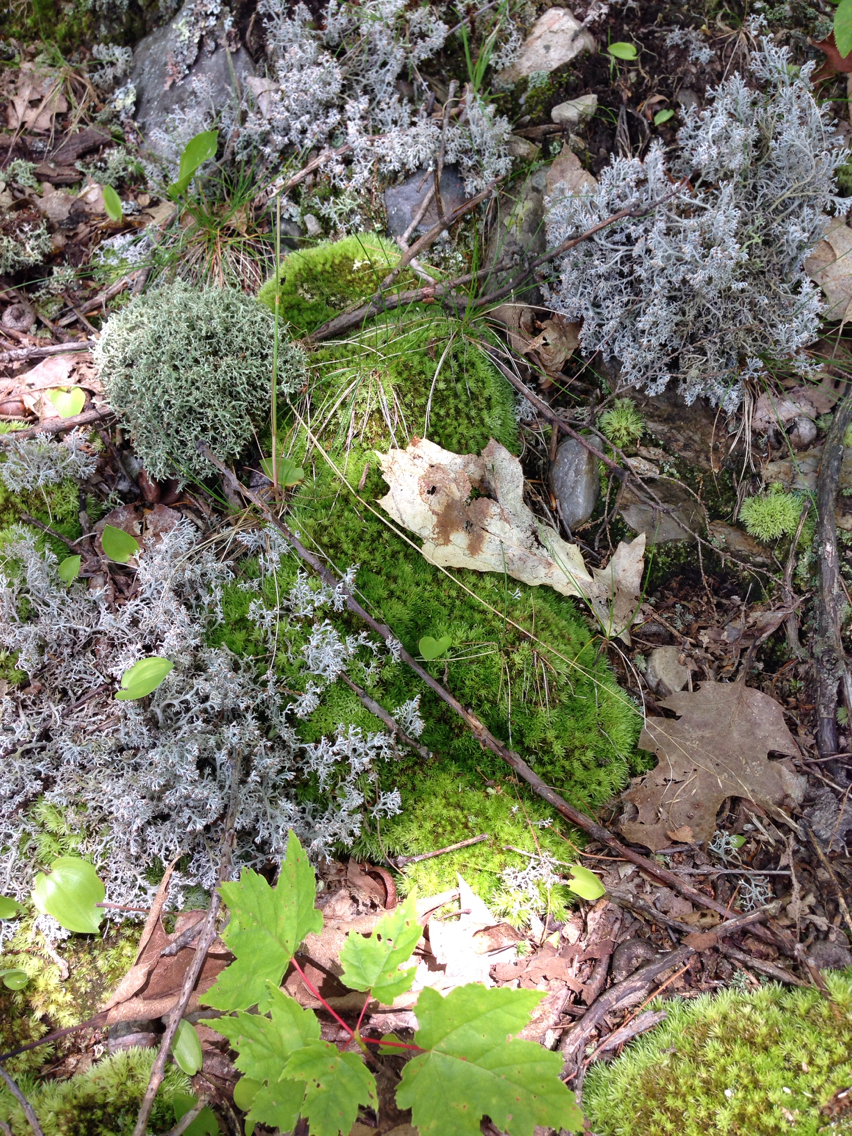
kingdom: Plantae
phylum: Bryophyta
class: Bryopsida
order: Dicranales
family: Leucobryaceae
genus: Leucobryum
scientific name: Leucobryum glaucum
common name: Large white-moss
